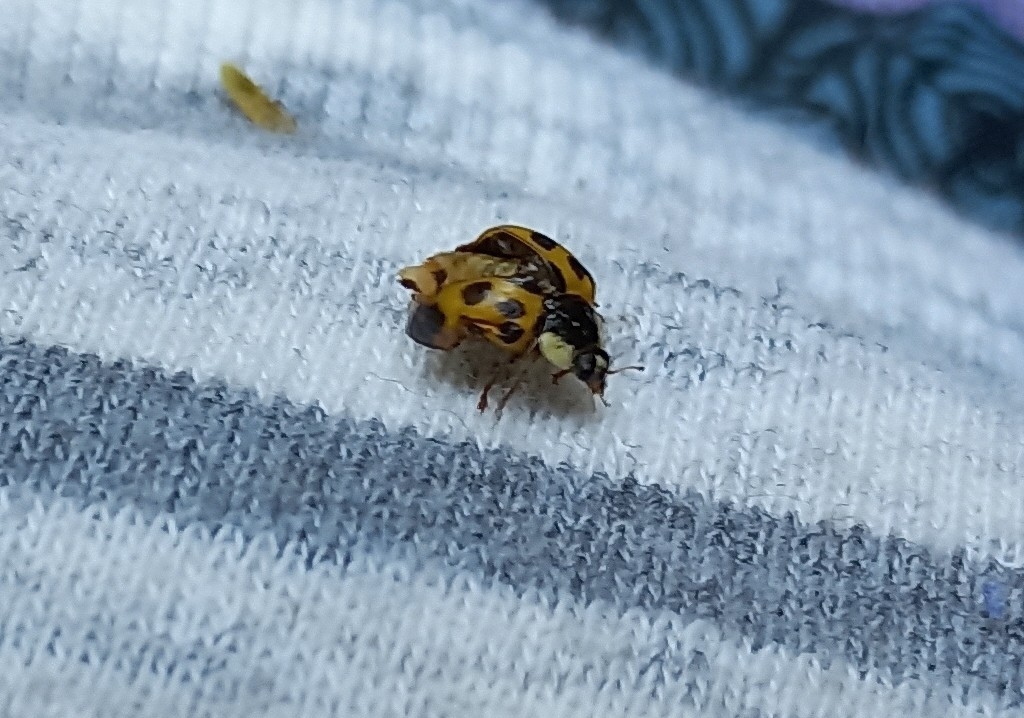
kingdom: Animalia
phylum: Arthropoda
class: Insecta
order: Coleoptera
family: Coccinellidae
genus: Harmonia
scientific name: Harmonia axyridis
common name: Harlequin ladybird
